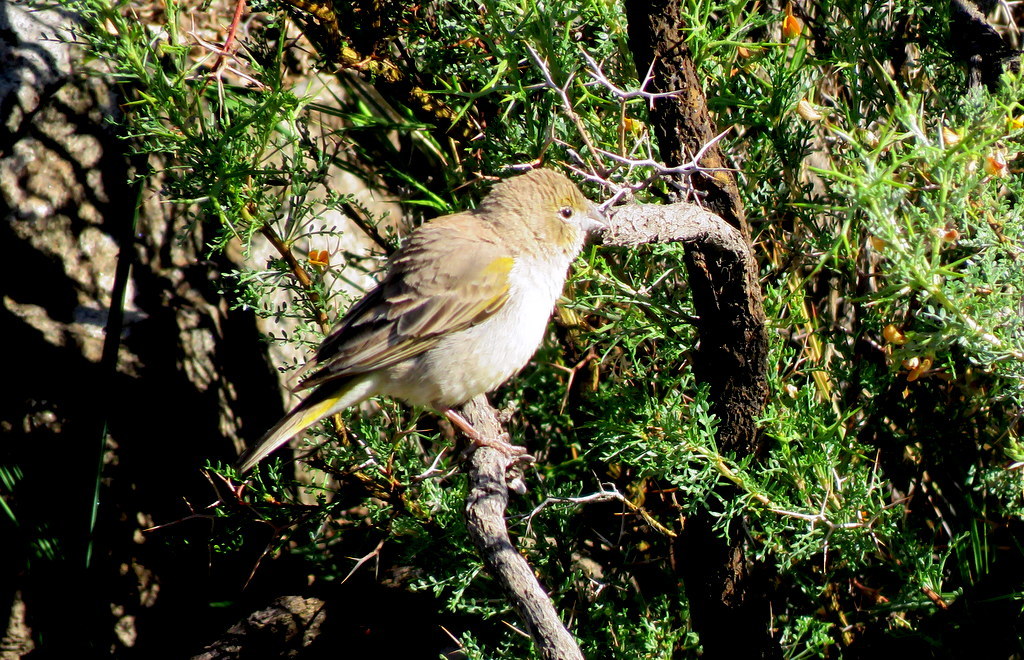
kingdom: Animalia
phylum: Chordata
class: Aves
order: Passeriformes
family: Thraupidae
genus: Sicalis
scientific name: Sicalis olivascens
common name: Greenish yellow finch
